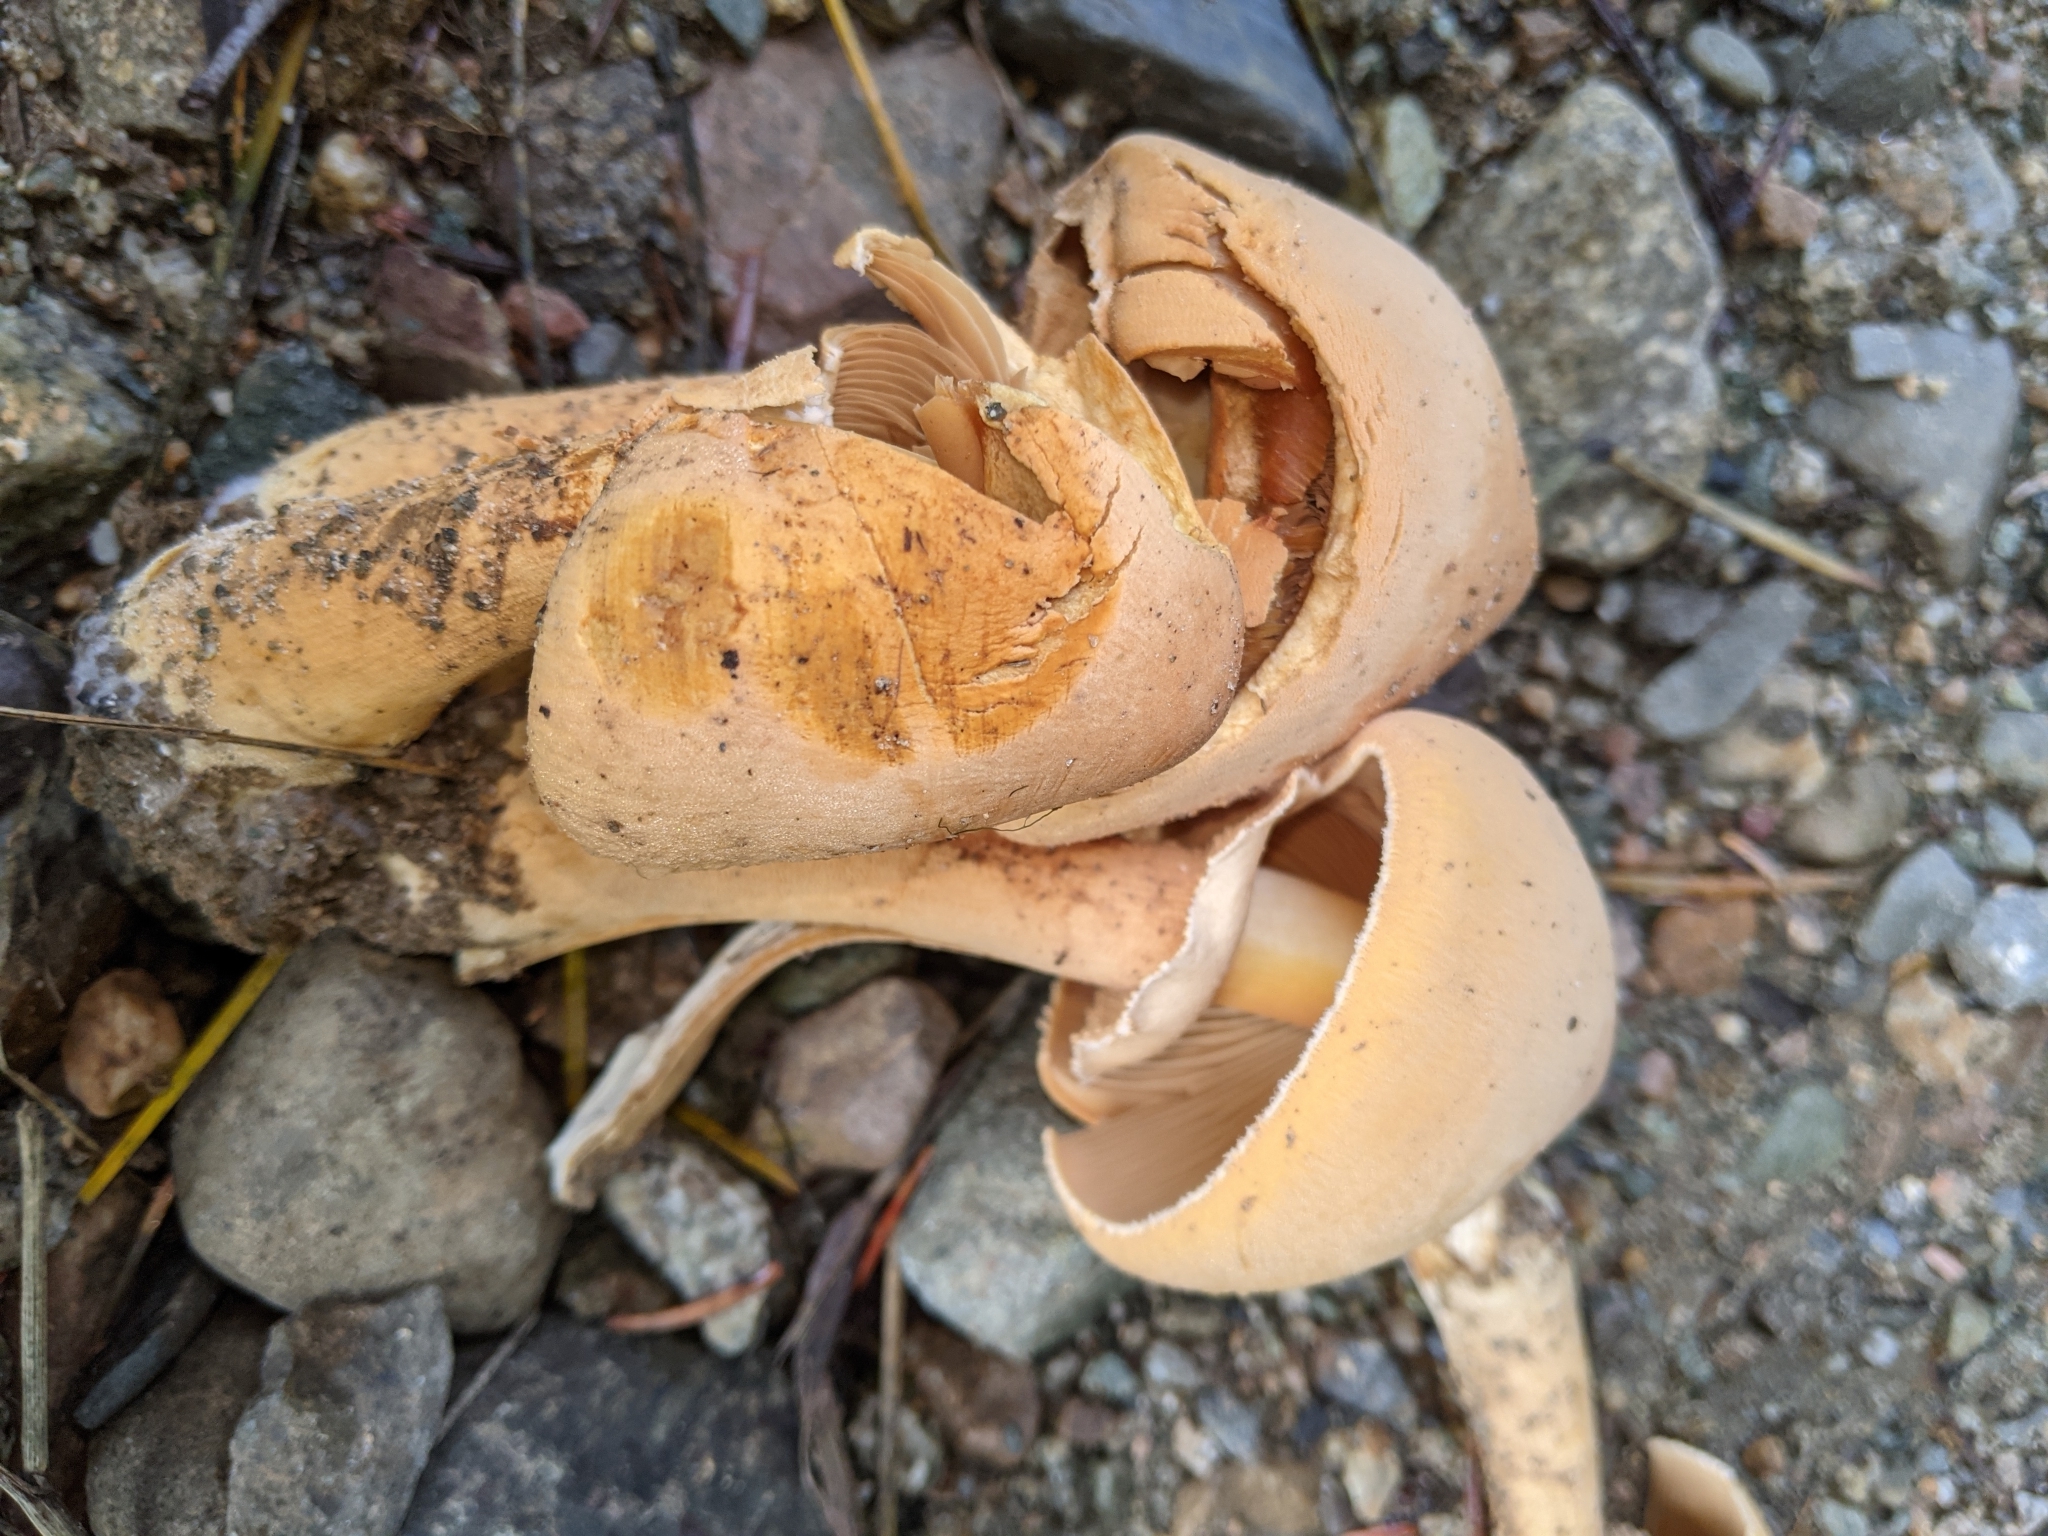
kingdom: Fungi
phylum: Basidiomycota
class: Agaricomycetes
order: Agaricales
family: Tricholomataceae
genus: Phaeolepiota
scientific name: Phaeolepiota aurea
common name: Golden bootleg
